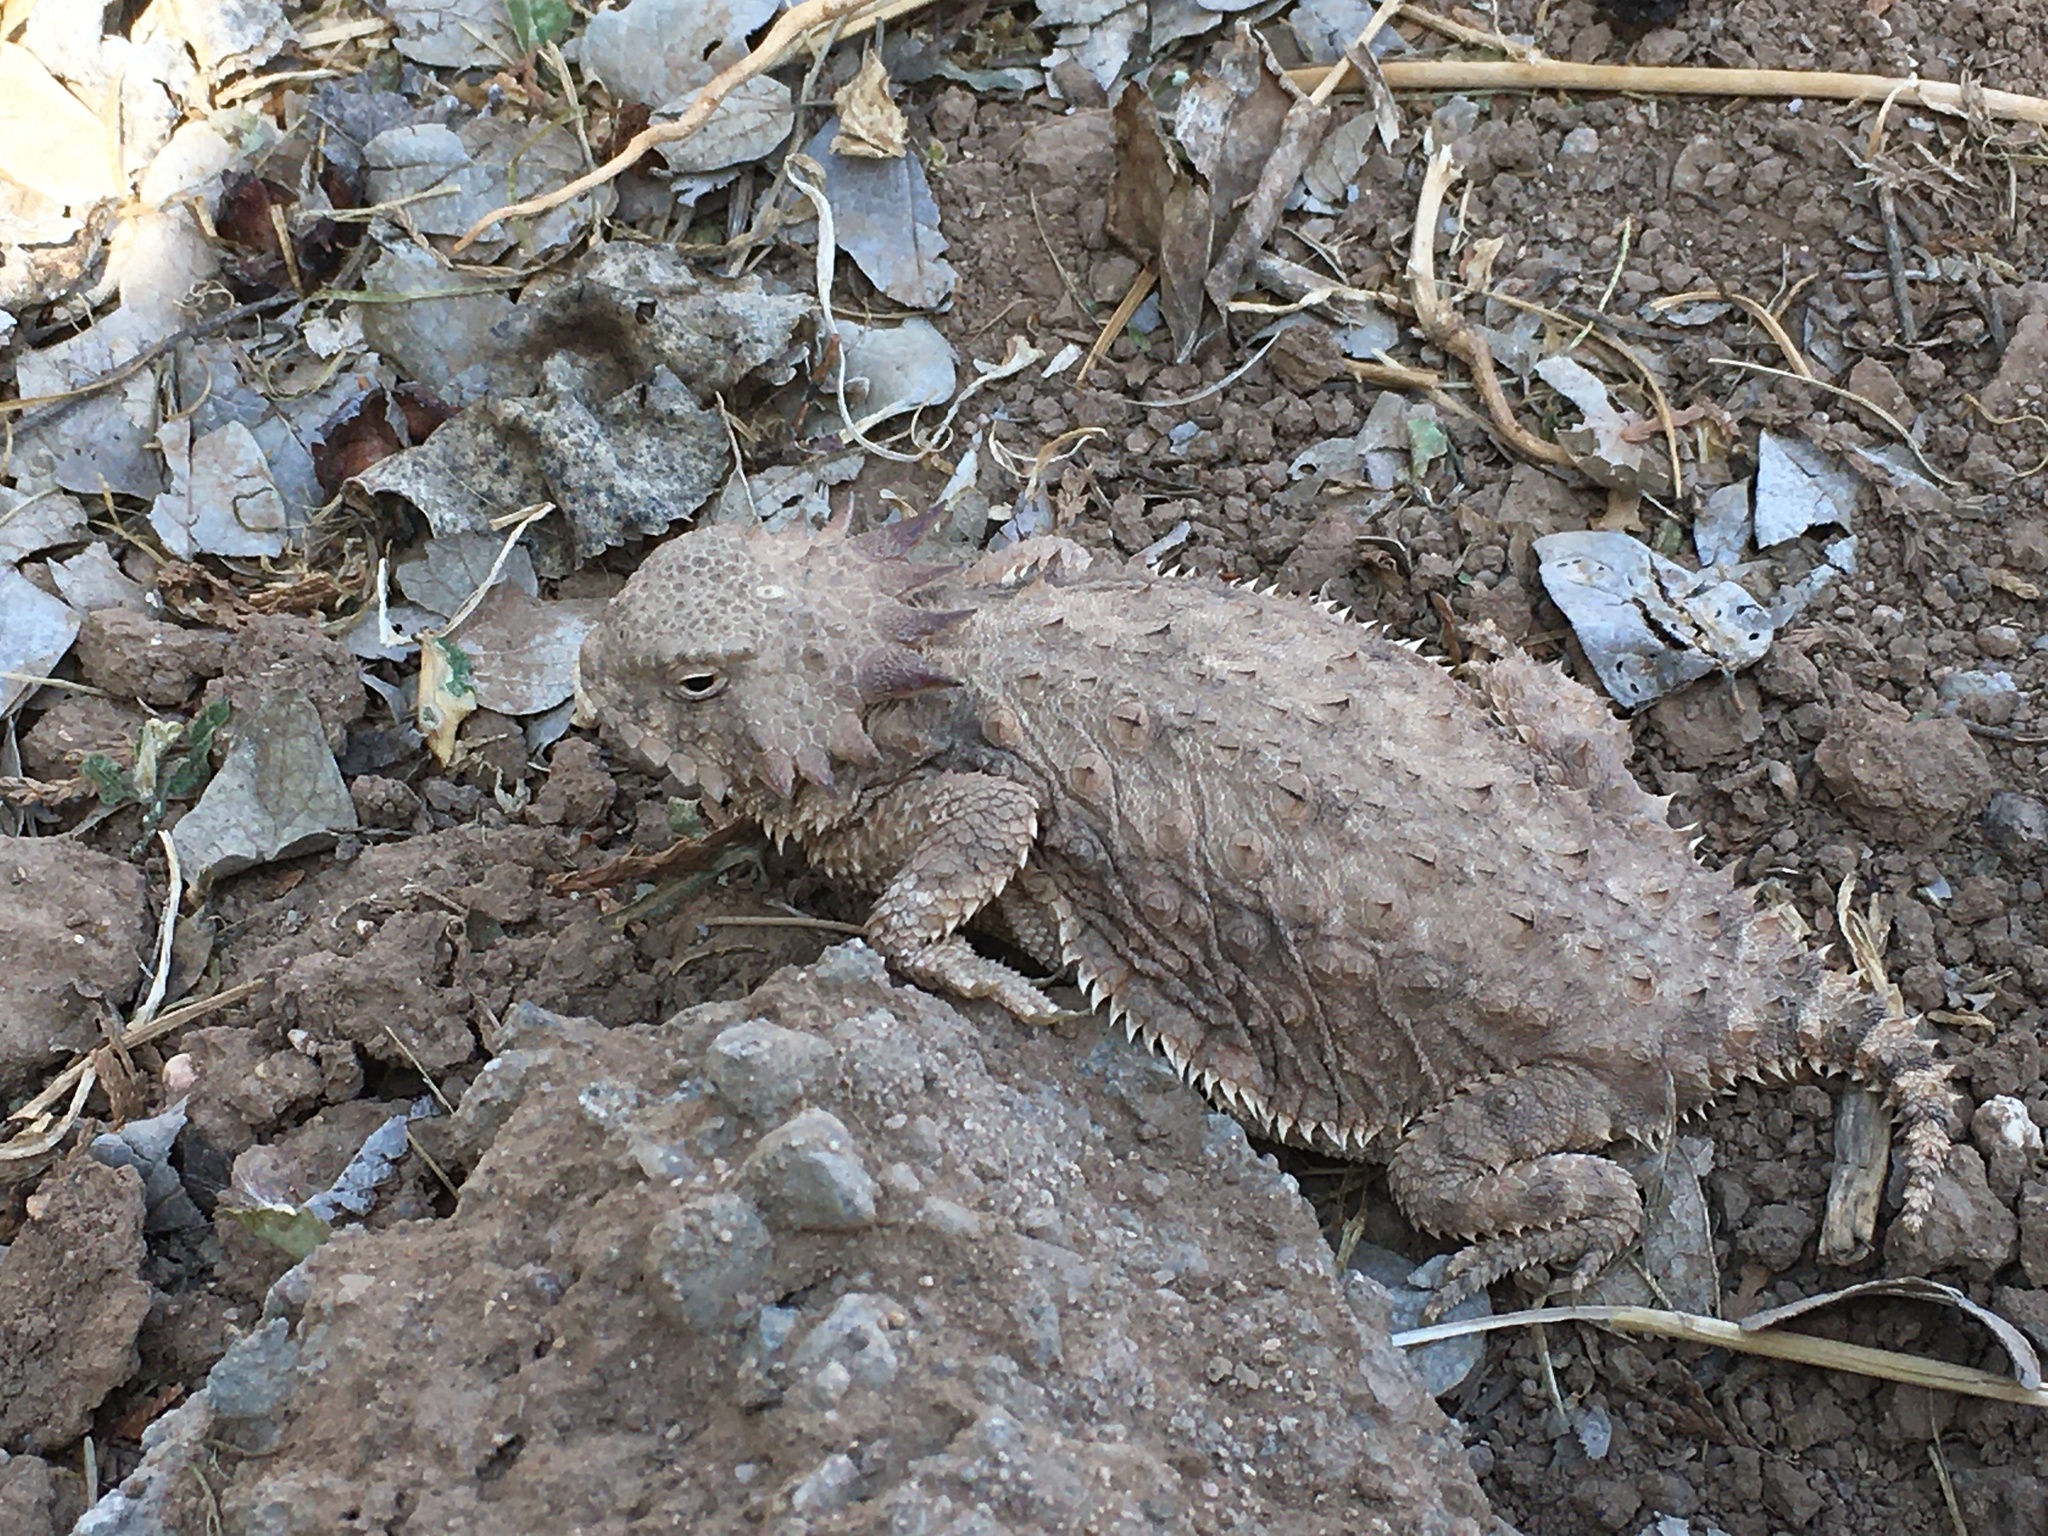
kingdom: Animalia
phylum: Chordata
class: Squamata
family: Phrynosomatidae
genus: Phrynosoma
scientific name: Phrynosoma solare
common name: Regal horned lizard
